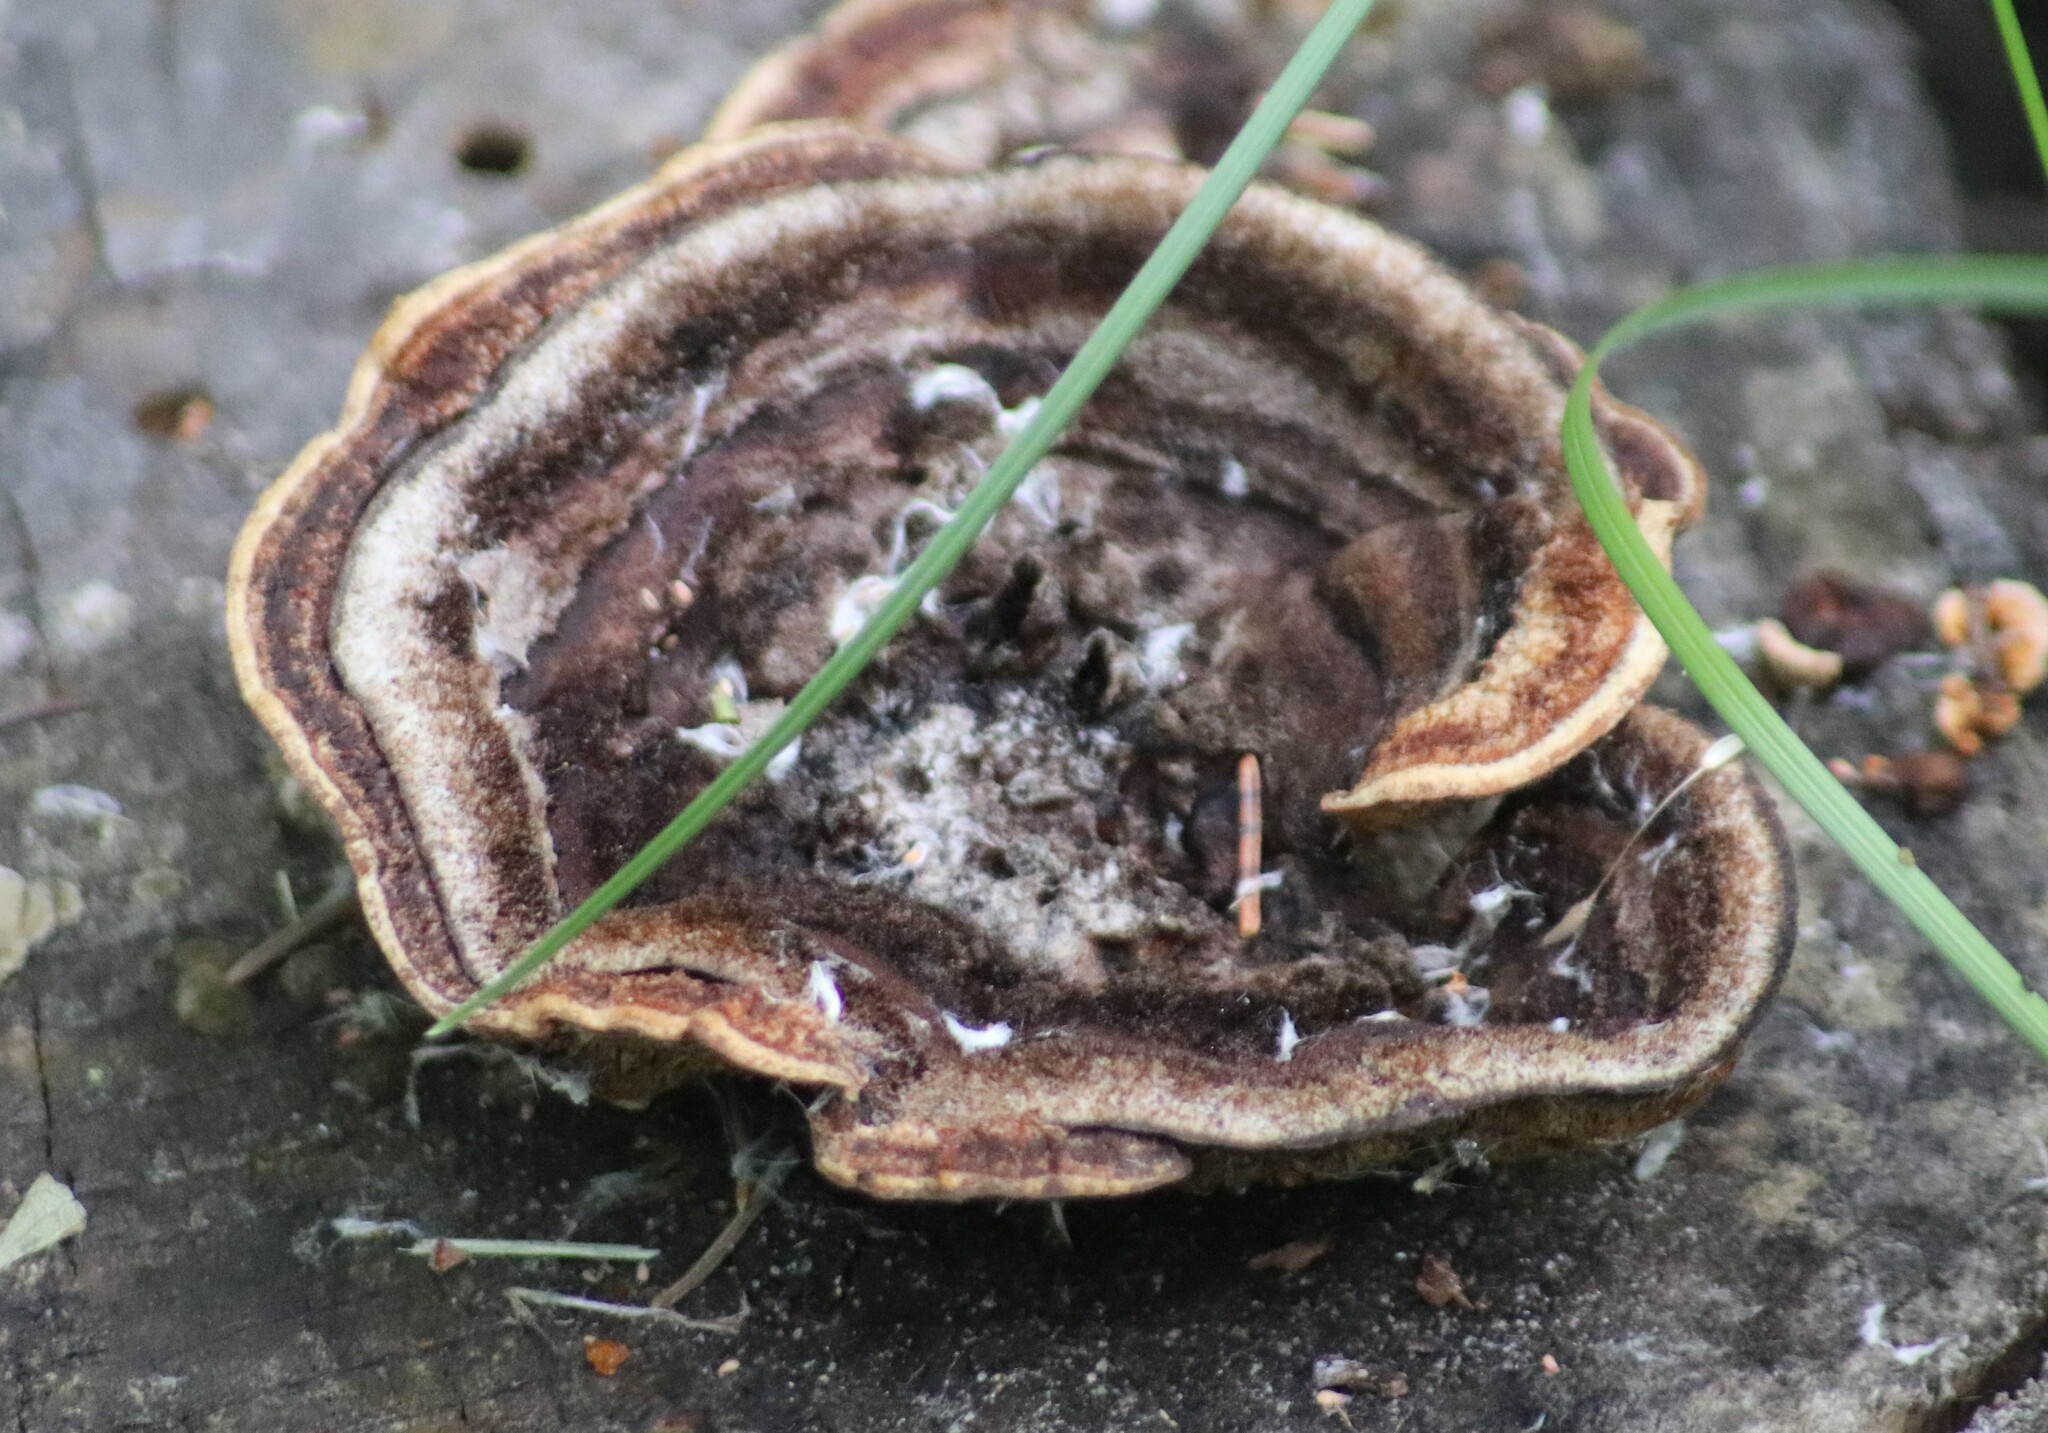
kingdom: Fungi
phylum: Basidiomycota
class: Agaricomycetes
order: Gloeophyllales
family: Gloeophyllaceae
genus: Gloeophyllum
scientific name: Gloeophyllum sepiarium
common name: Conifer mazegill
